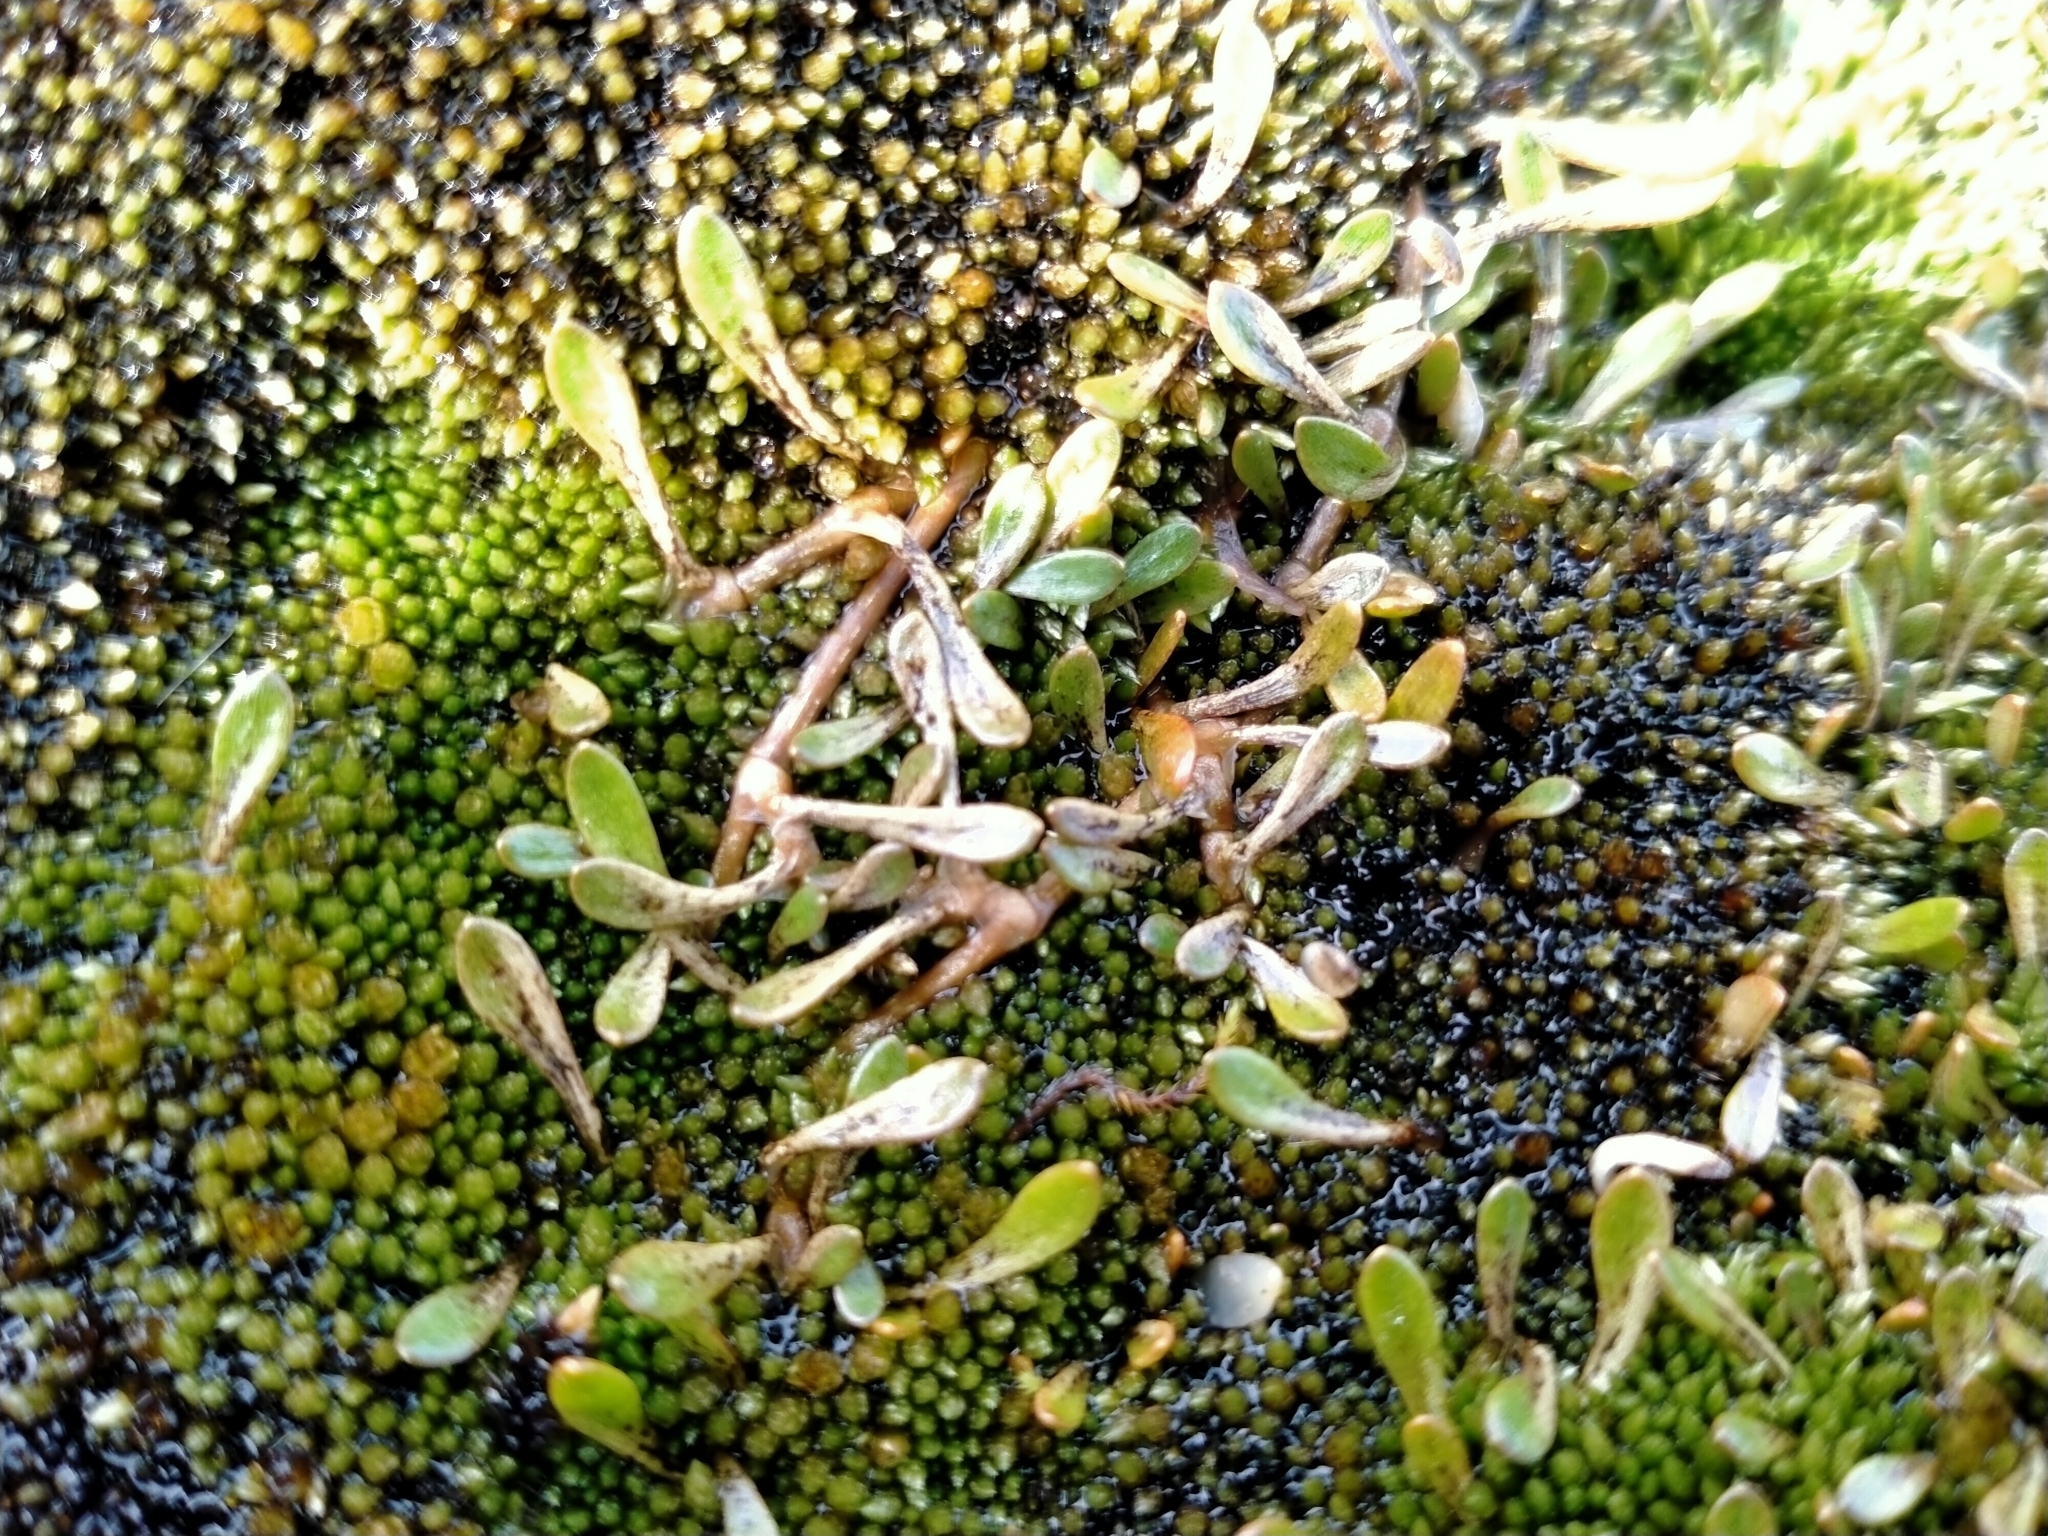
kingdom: Plantae
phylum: Tracheophyta
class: Magnoliopsida
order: Caryophyllales
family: Montiaceae
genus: Montia
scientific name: Montia sessiliflora
